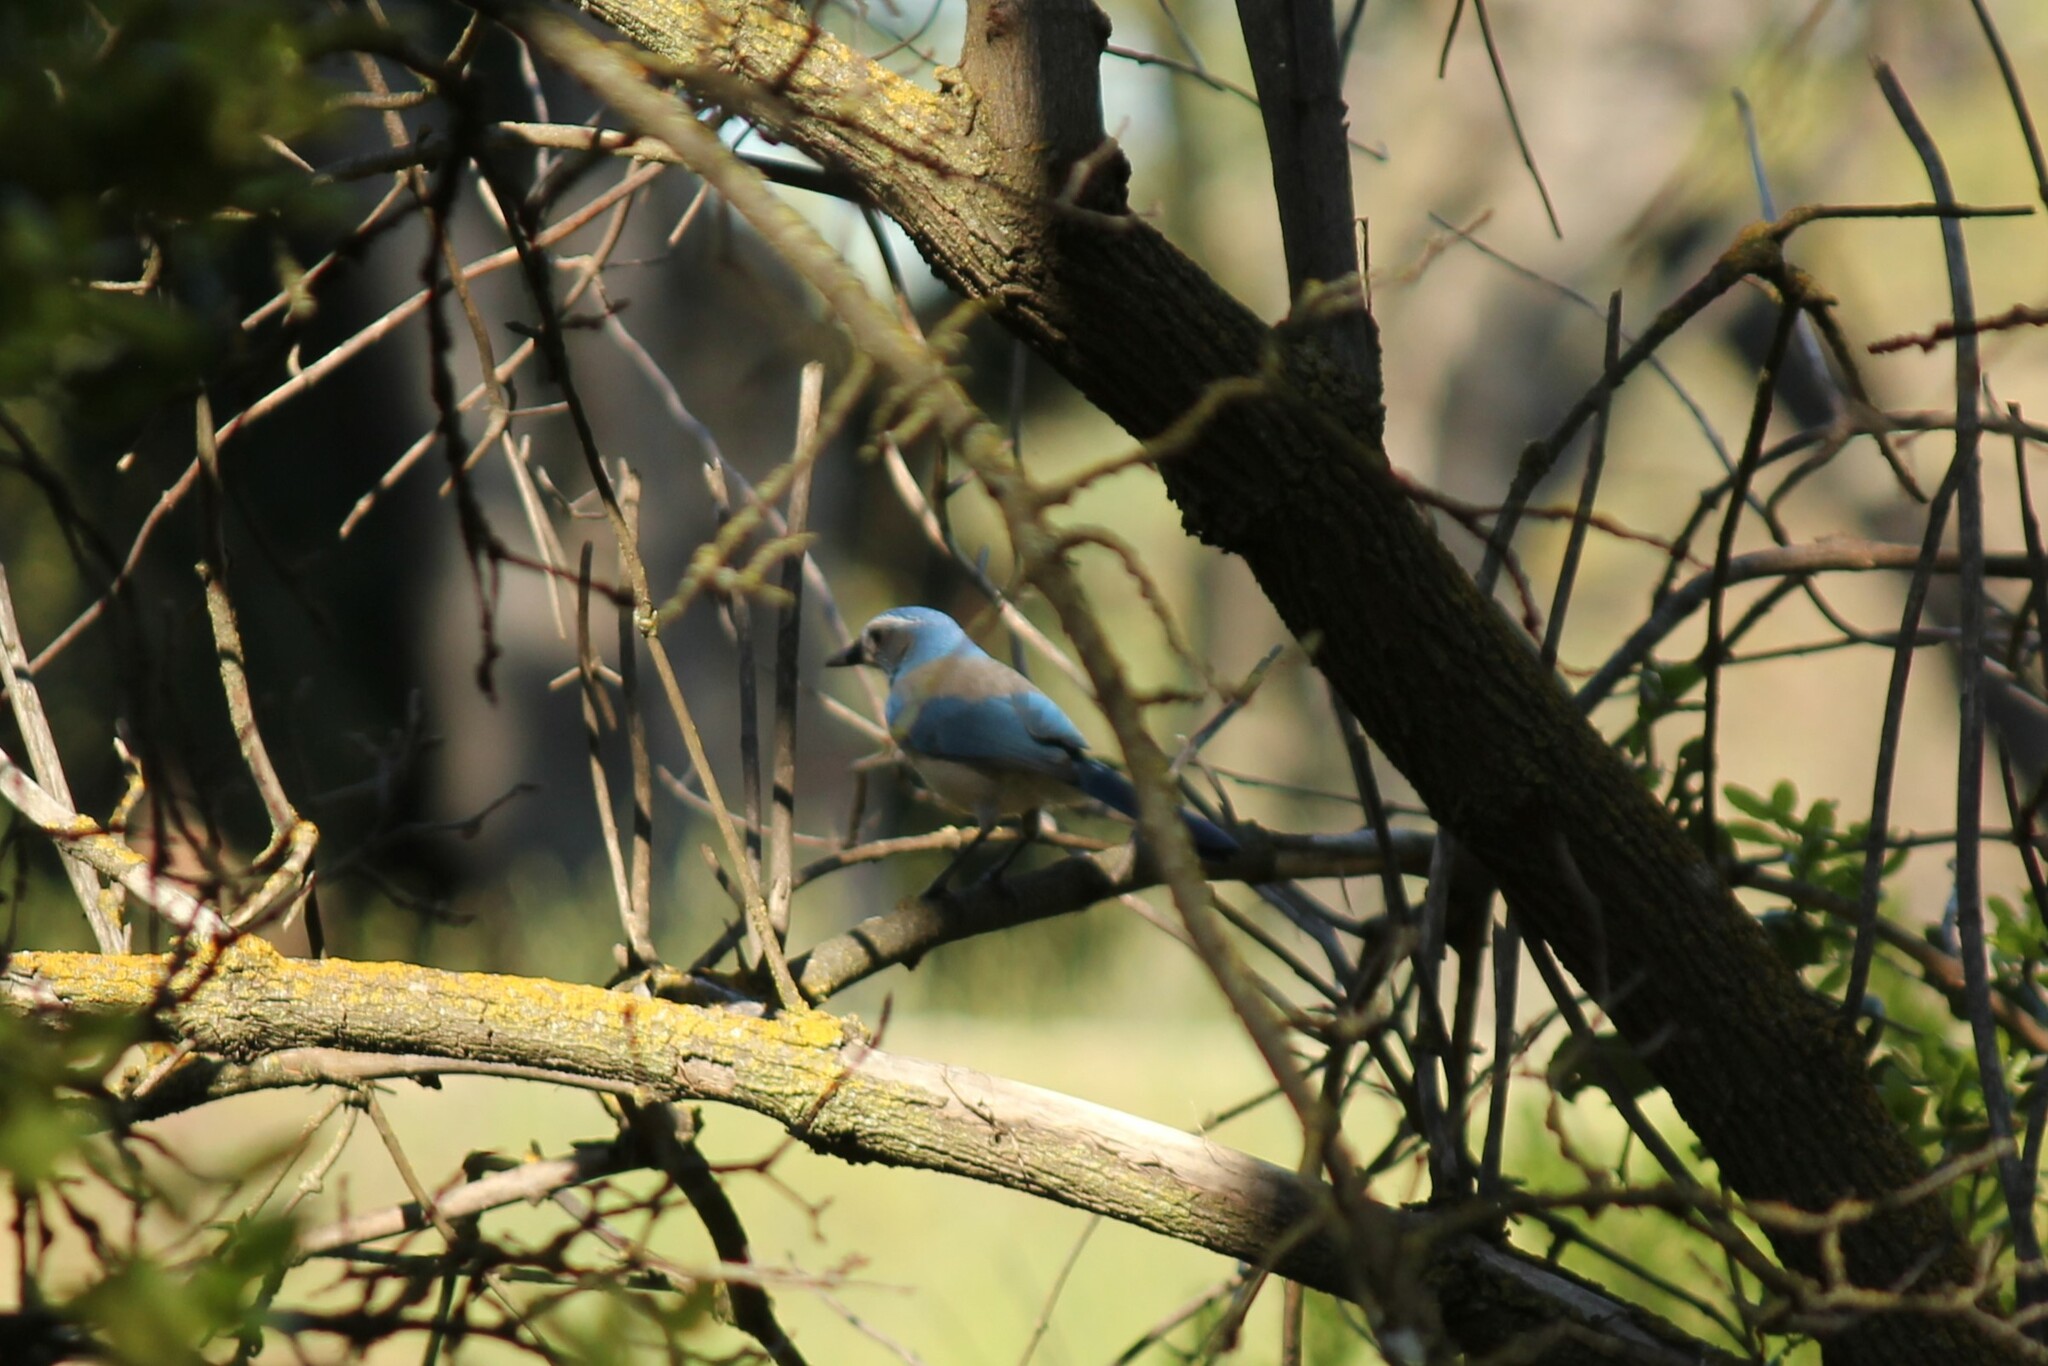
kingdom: Animalia
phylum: Chordata
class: Aves
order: Passeriformes
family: Corvidae
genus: Aphelocoma
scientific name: Aphelocoma californica
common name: California scrub-jay
